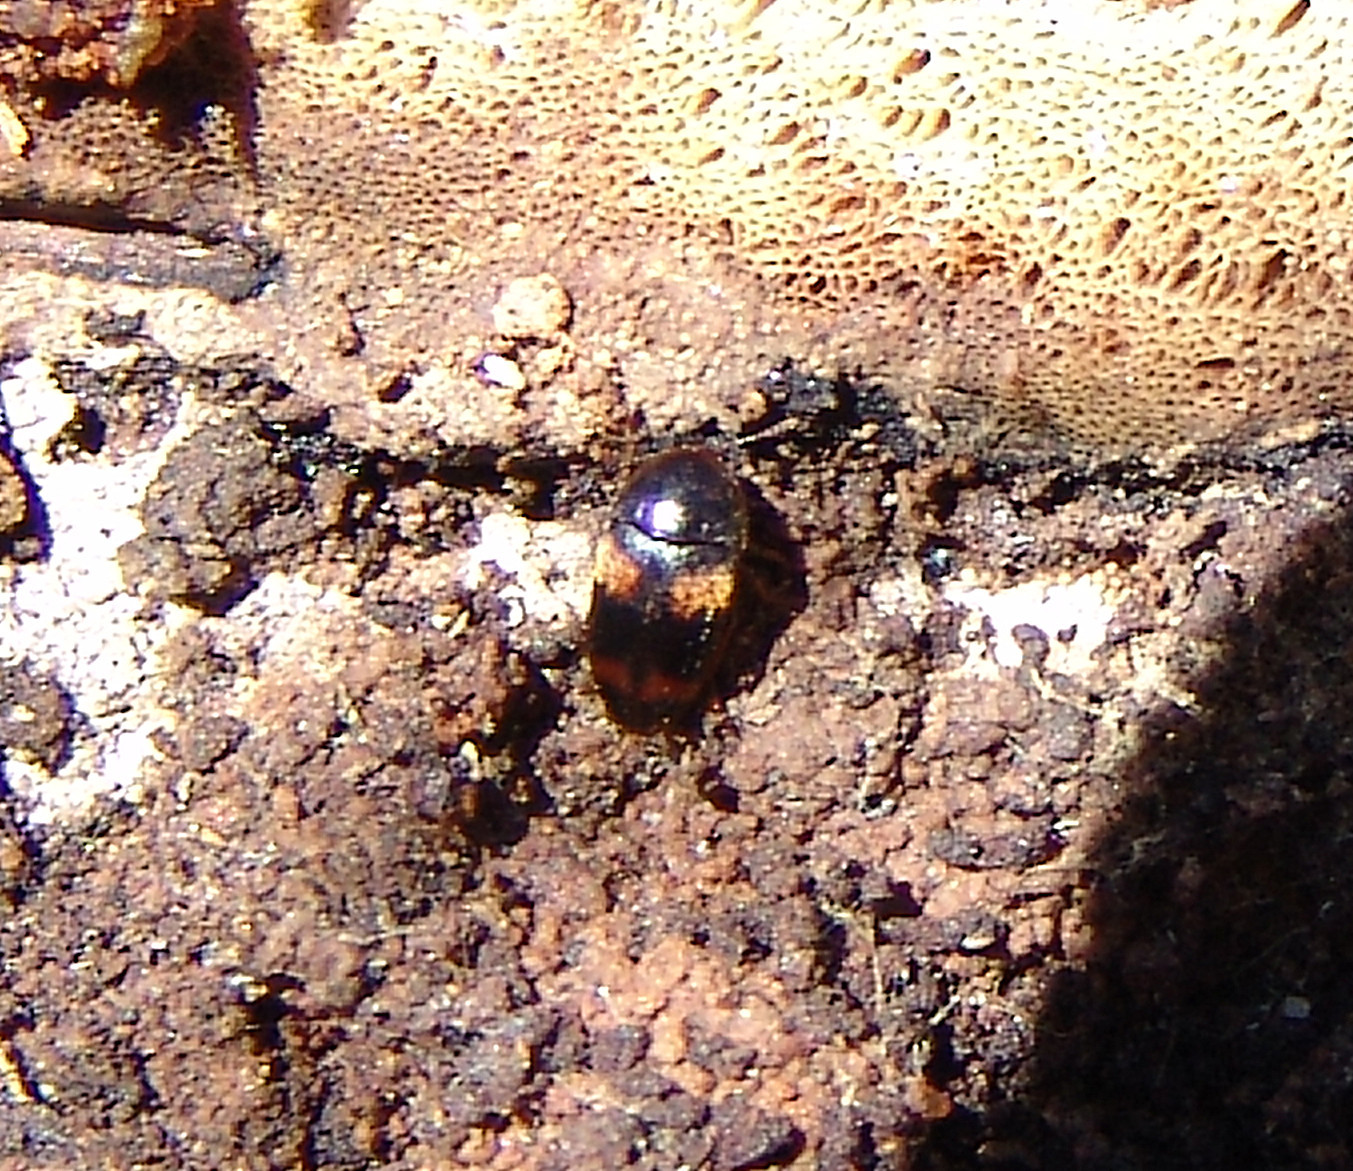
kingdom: Animalia
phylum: Arthropoda
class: Insecta
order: Coleoptera
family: Tetratomidae
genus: Holostrophus
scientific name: Holostrophus bifasciatus
